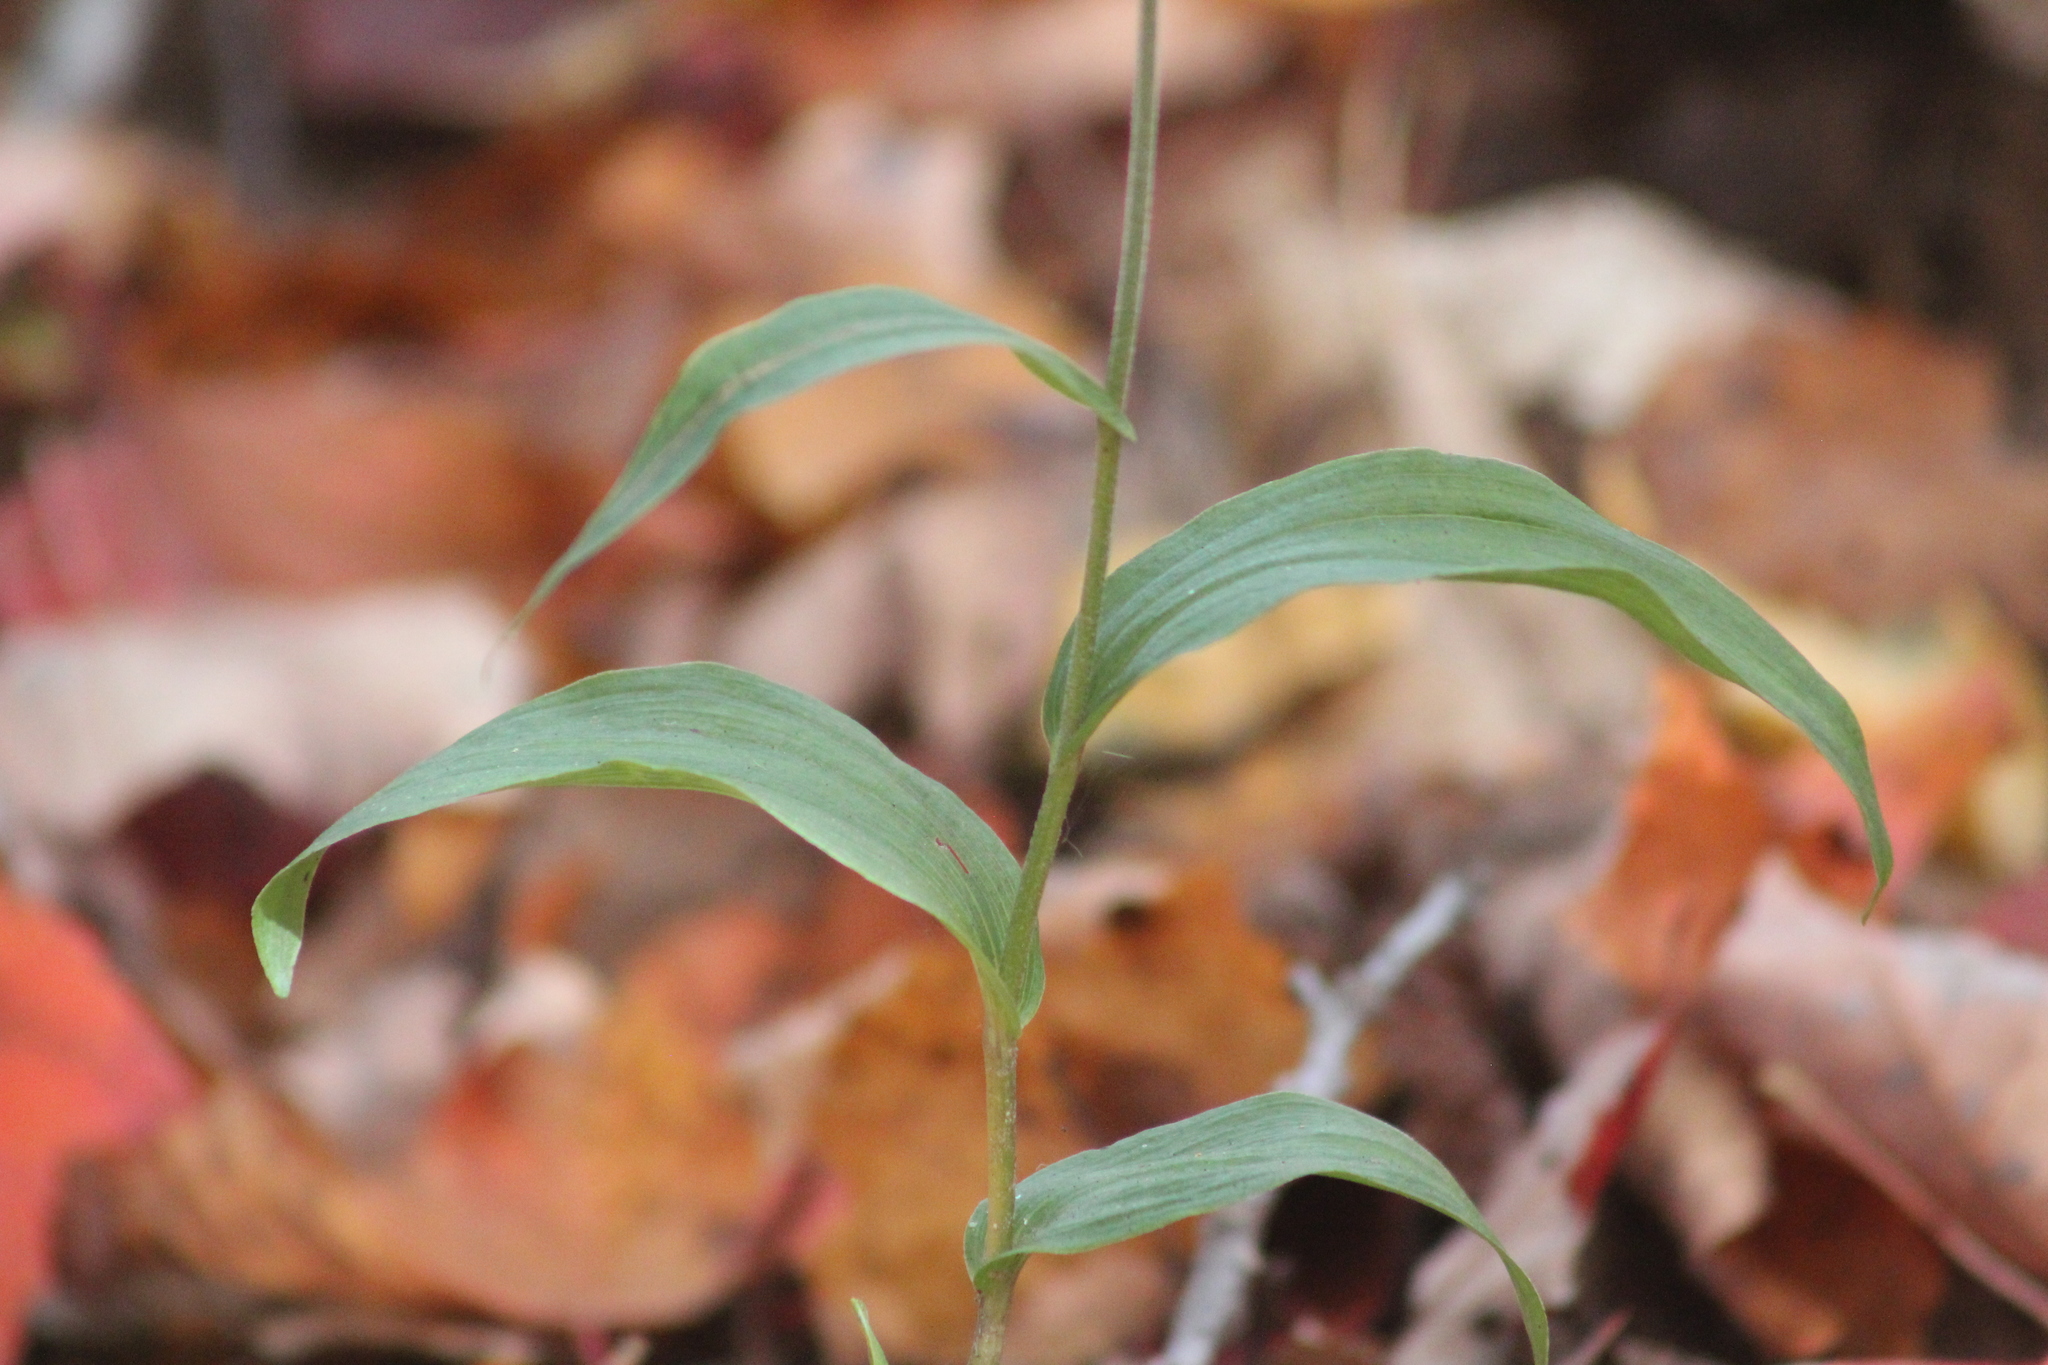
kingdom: Plantae
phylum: Tracheophyta
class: Liliopsida
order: Asparagales
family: Orchidaceae
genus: Epipactis
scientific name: Epipactis helleborine
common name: Broad-leaved helleborine
